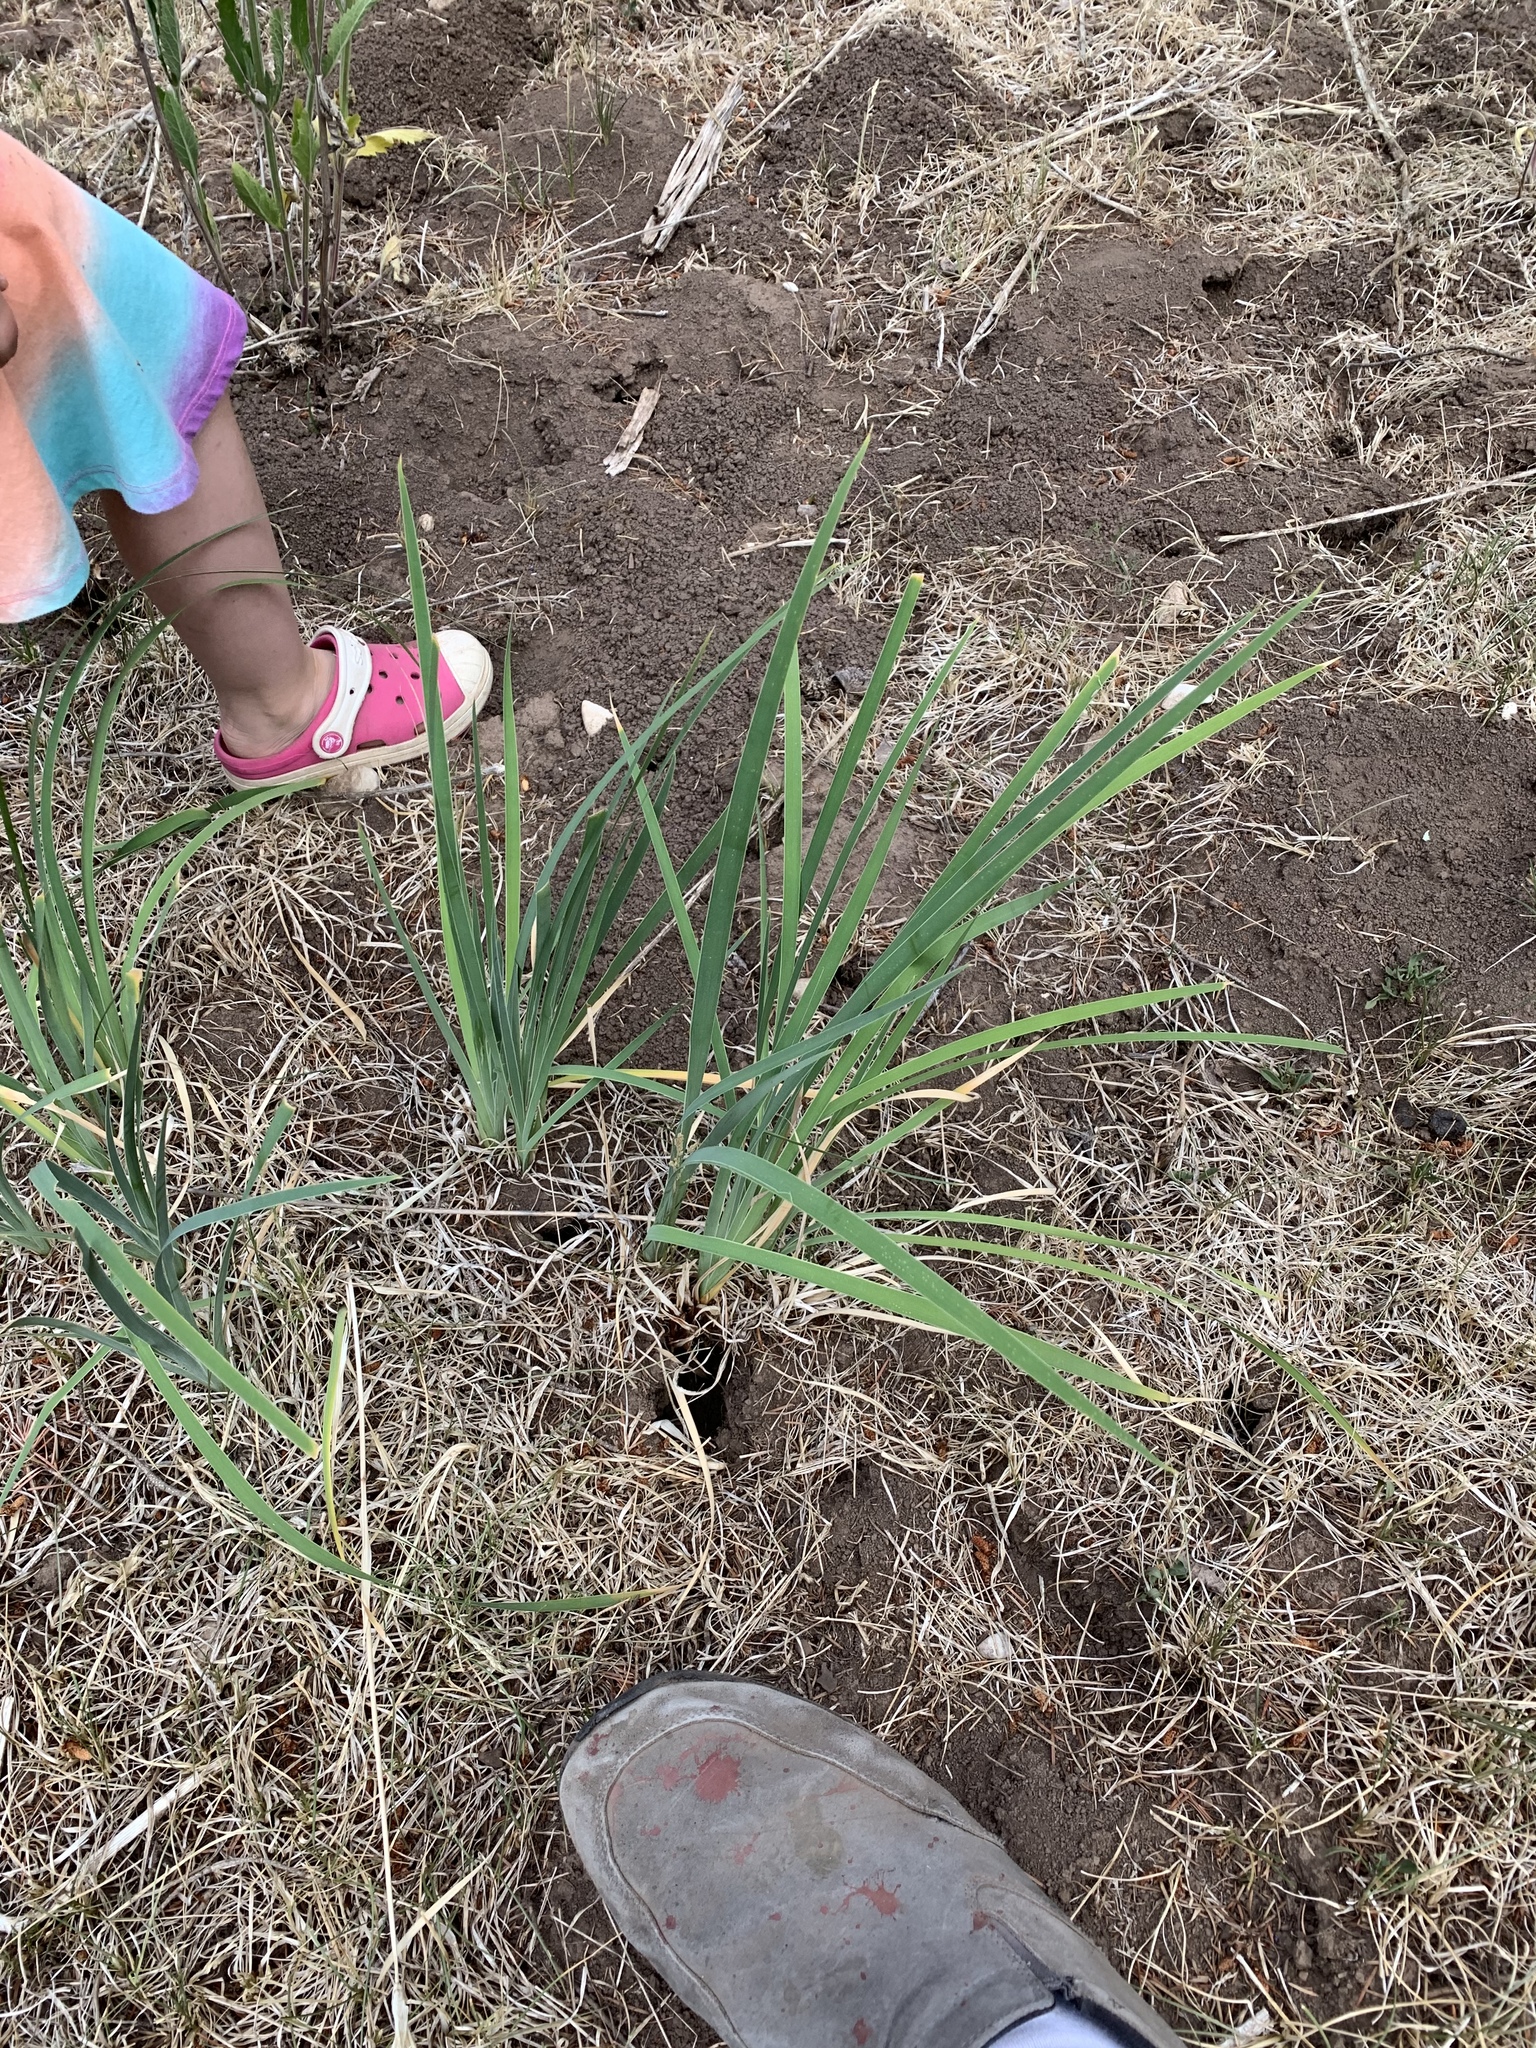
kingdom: Plantae
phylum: Tracheophyta
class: Liliopsida
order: Asparagales
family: Iridaceae
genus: Iris
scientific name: Iris missouriensis
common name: Rocky mountain iris
